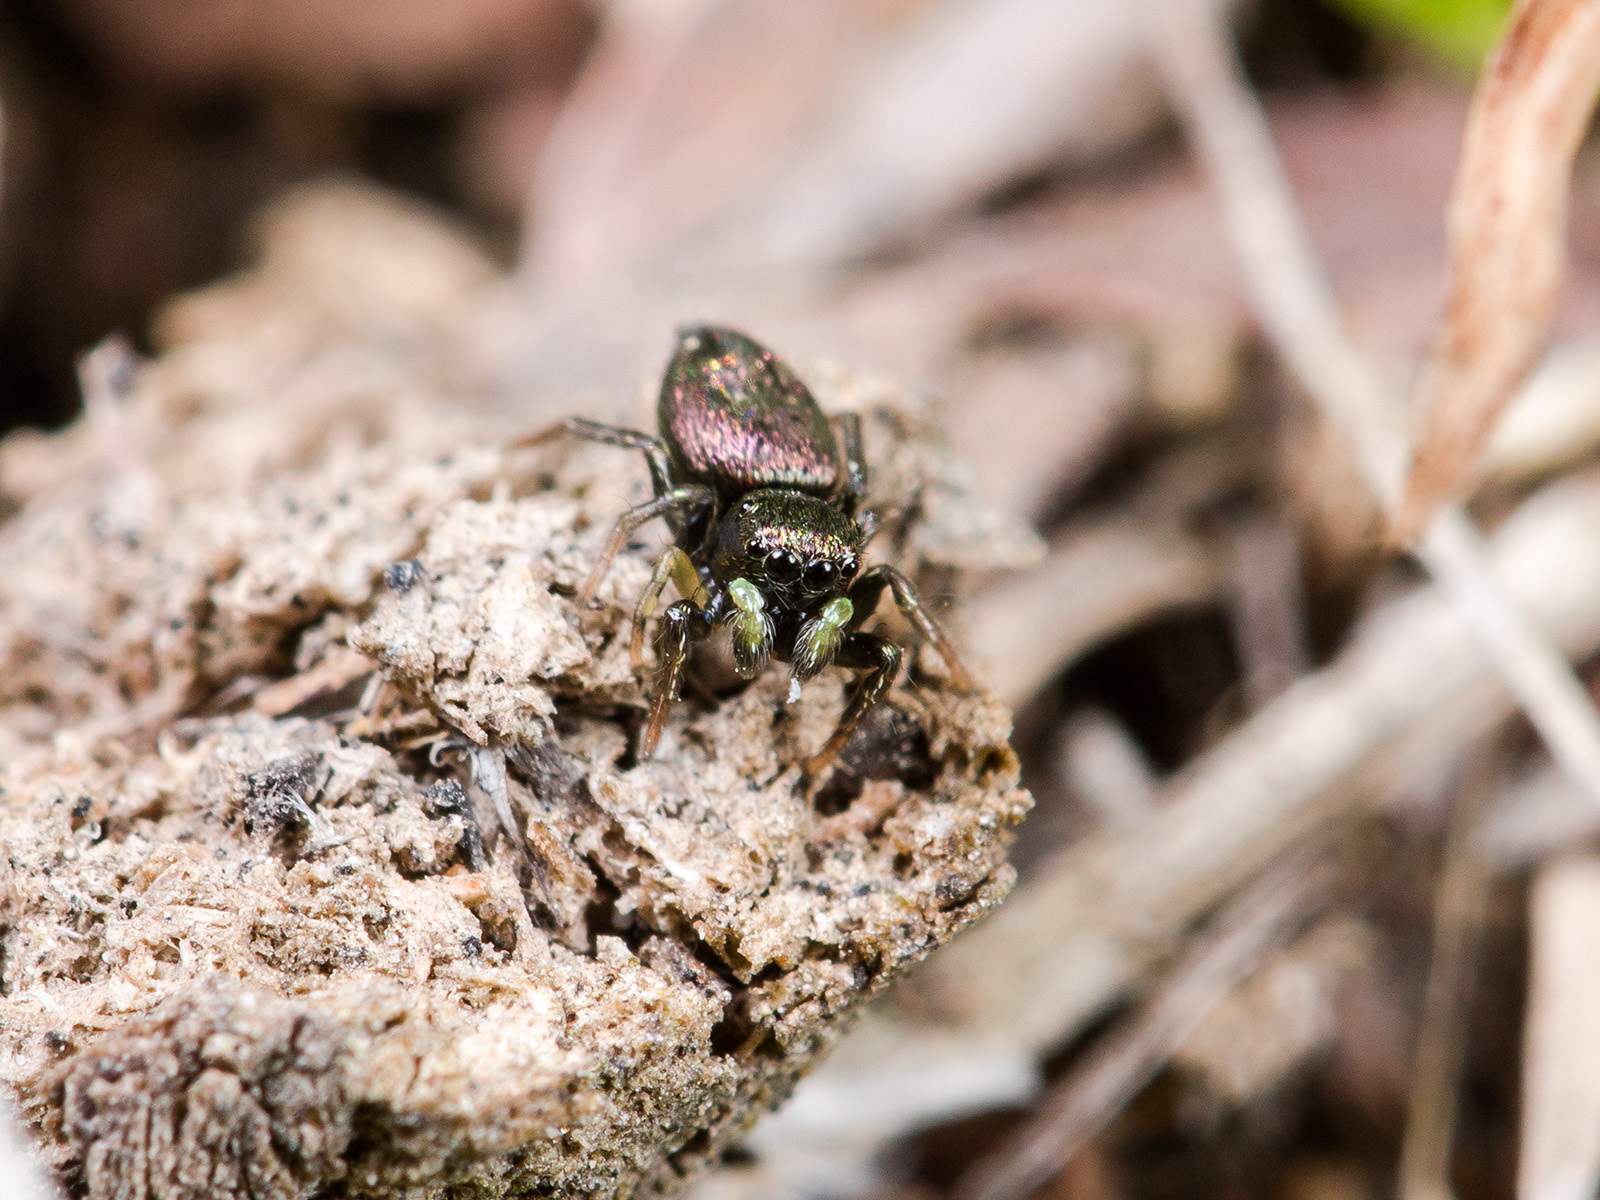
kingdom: Animalia
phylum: Arthropoda
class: Arachnida
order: Araneae
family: Salticidae
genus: Heliophanus
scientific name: Heliophanus curvidens
